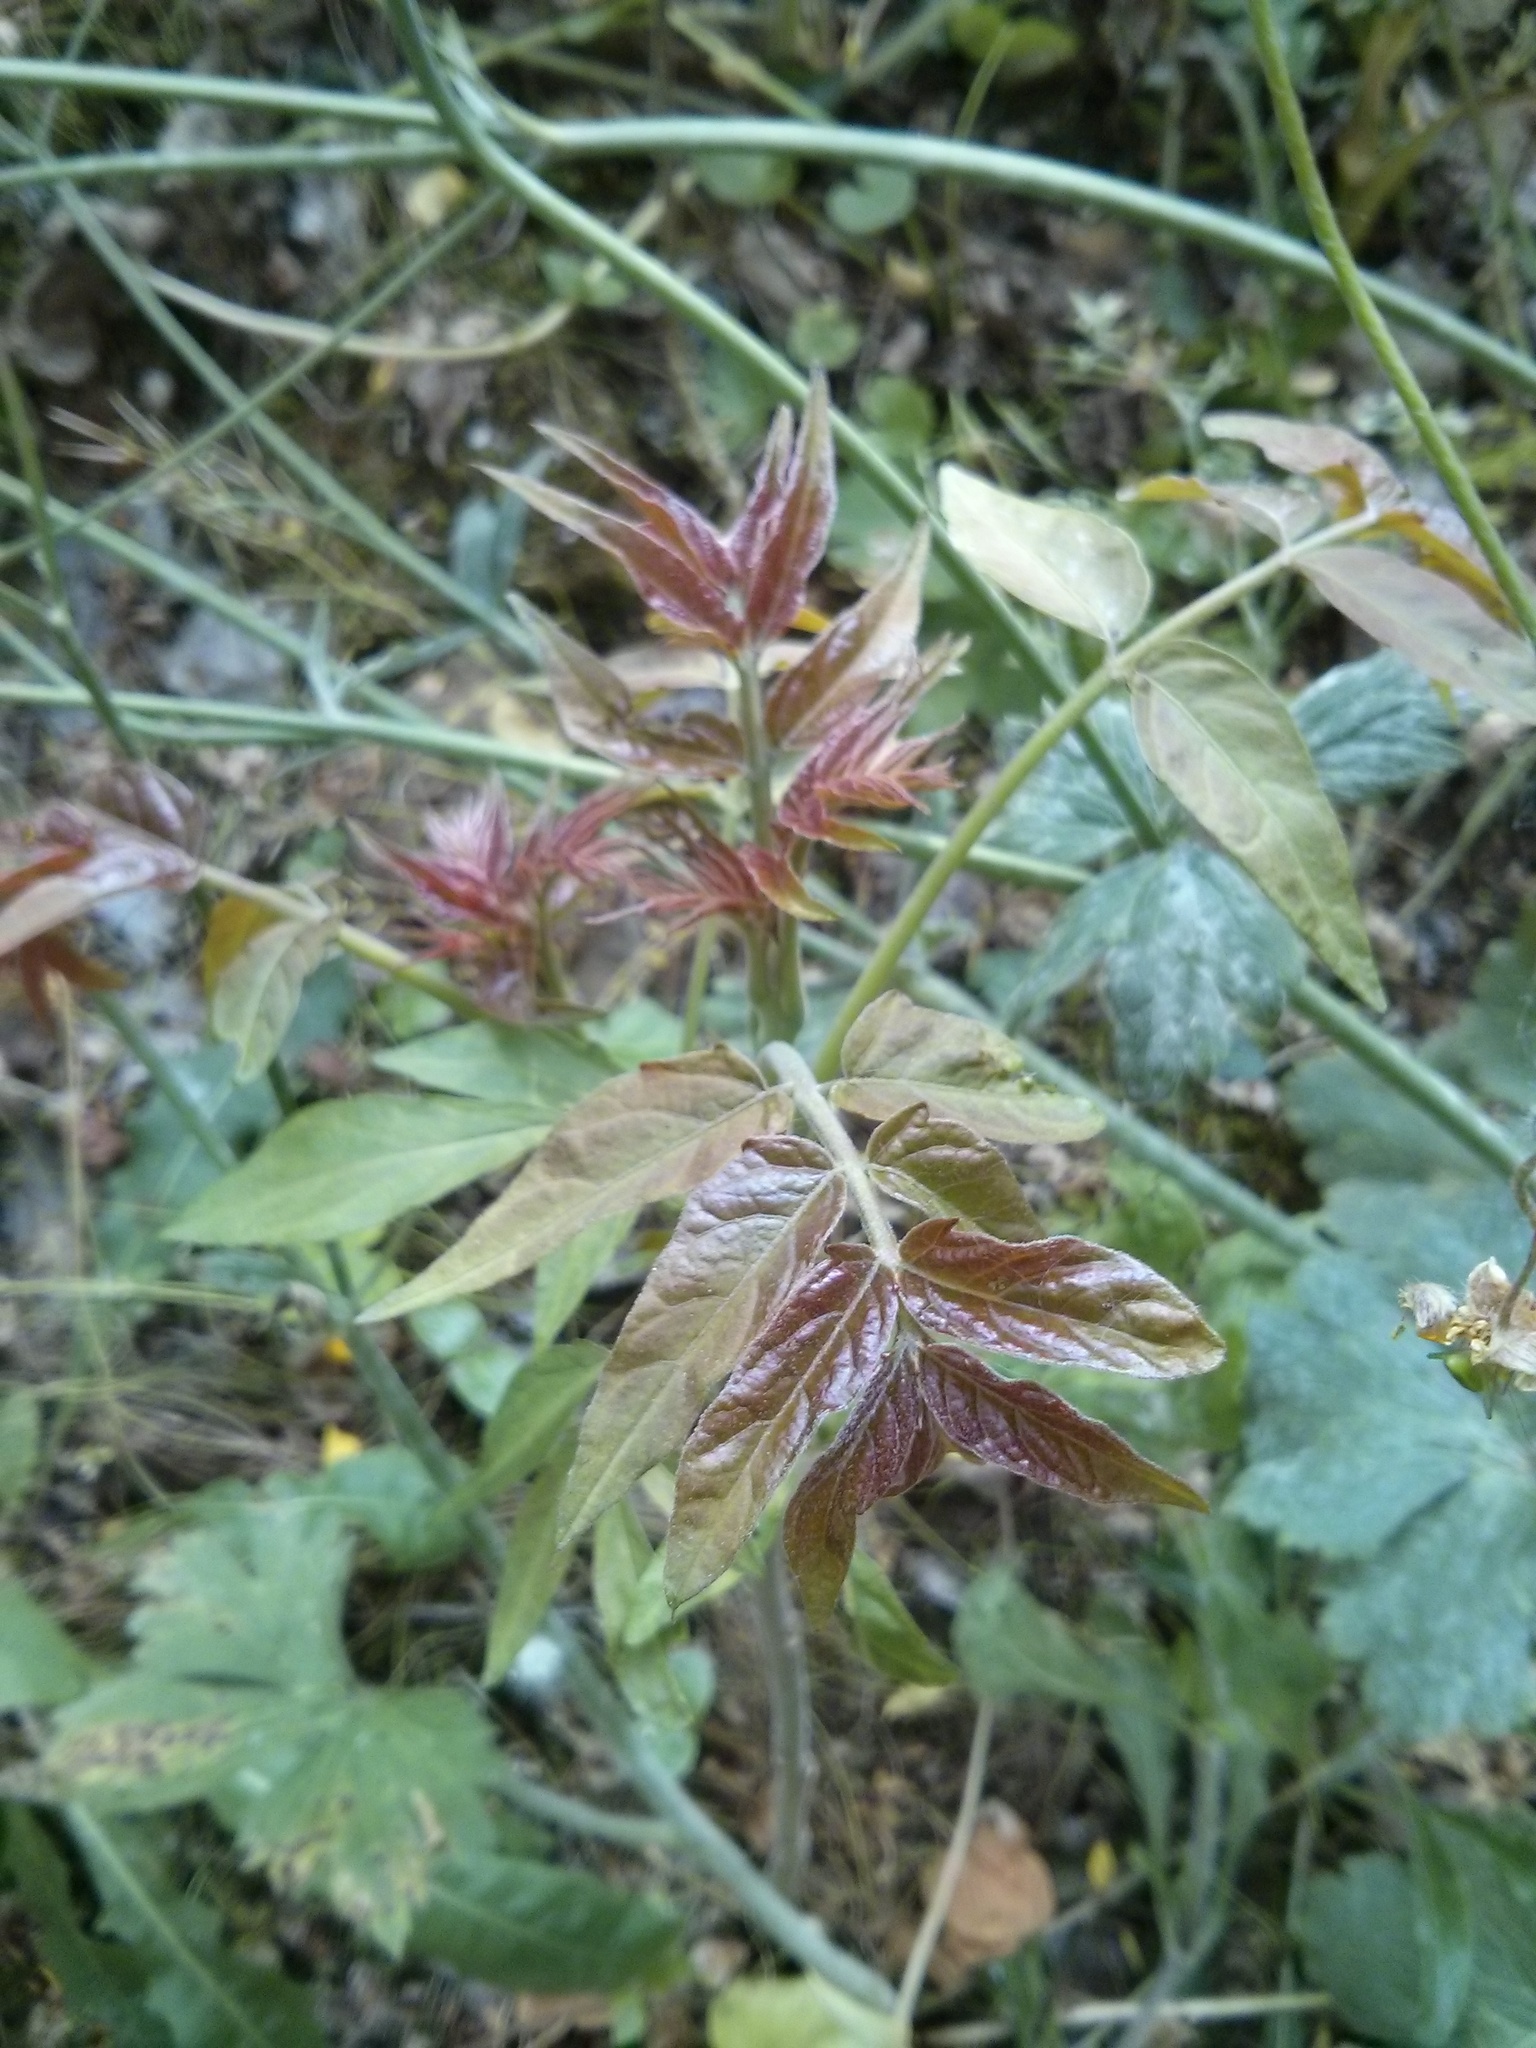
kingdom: Plantae
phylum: Tracheophyta
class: Magnoliopsida
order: Sapindales
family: Simaroubaceae
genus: Ailanthus
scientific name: Ailanthus altissima
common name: Tree-of-heaven
